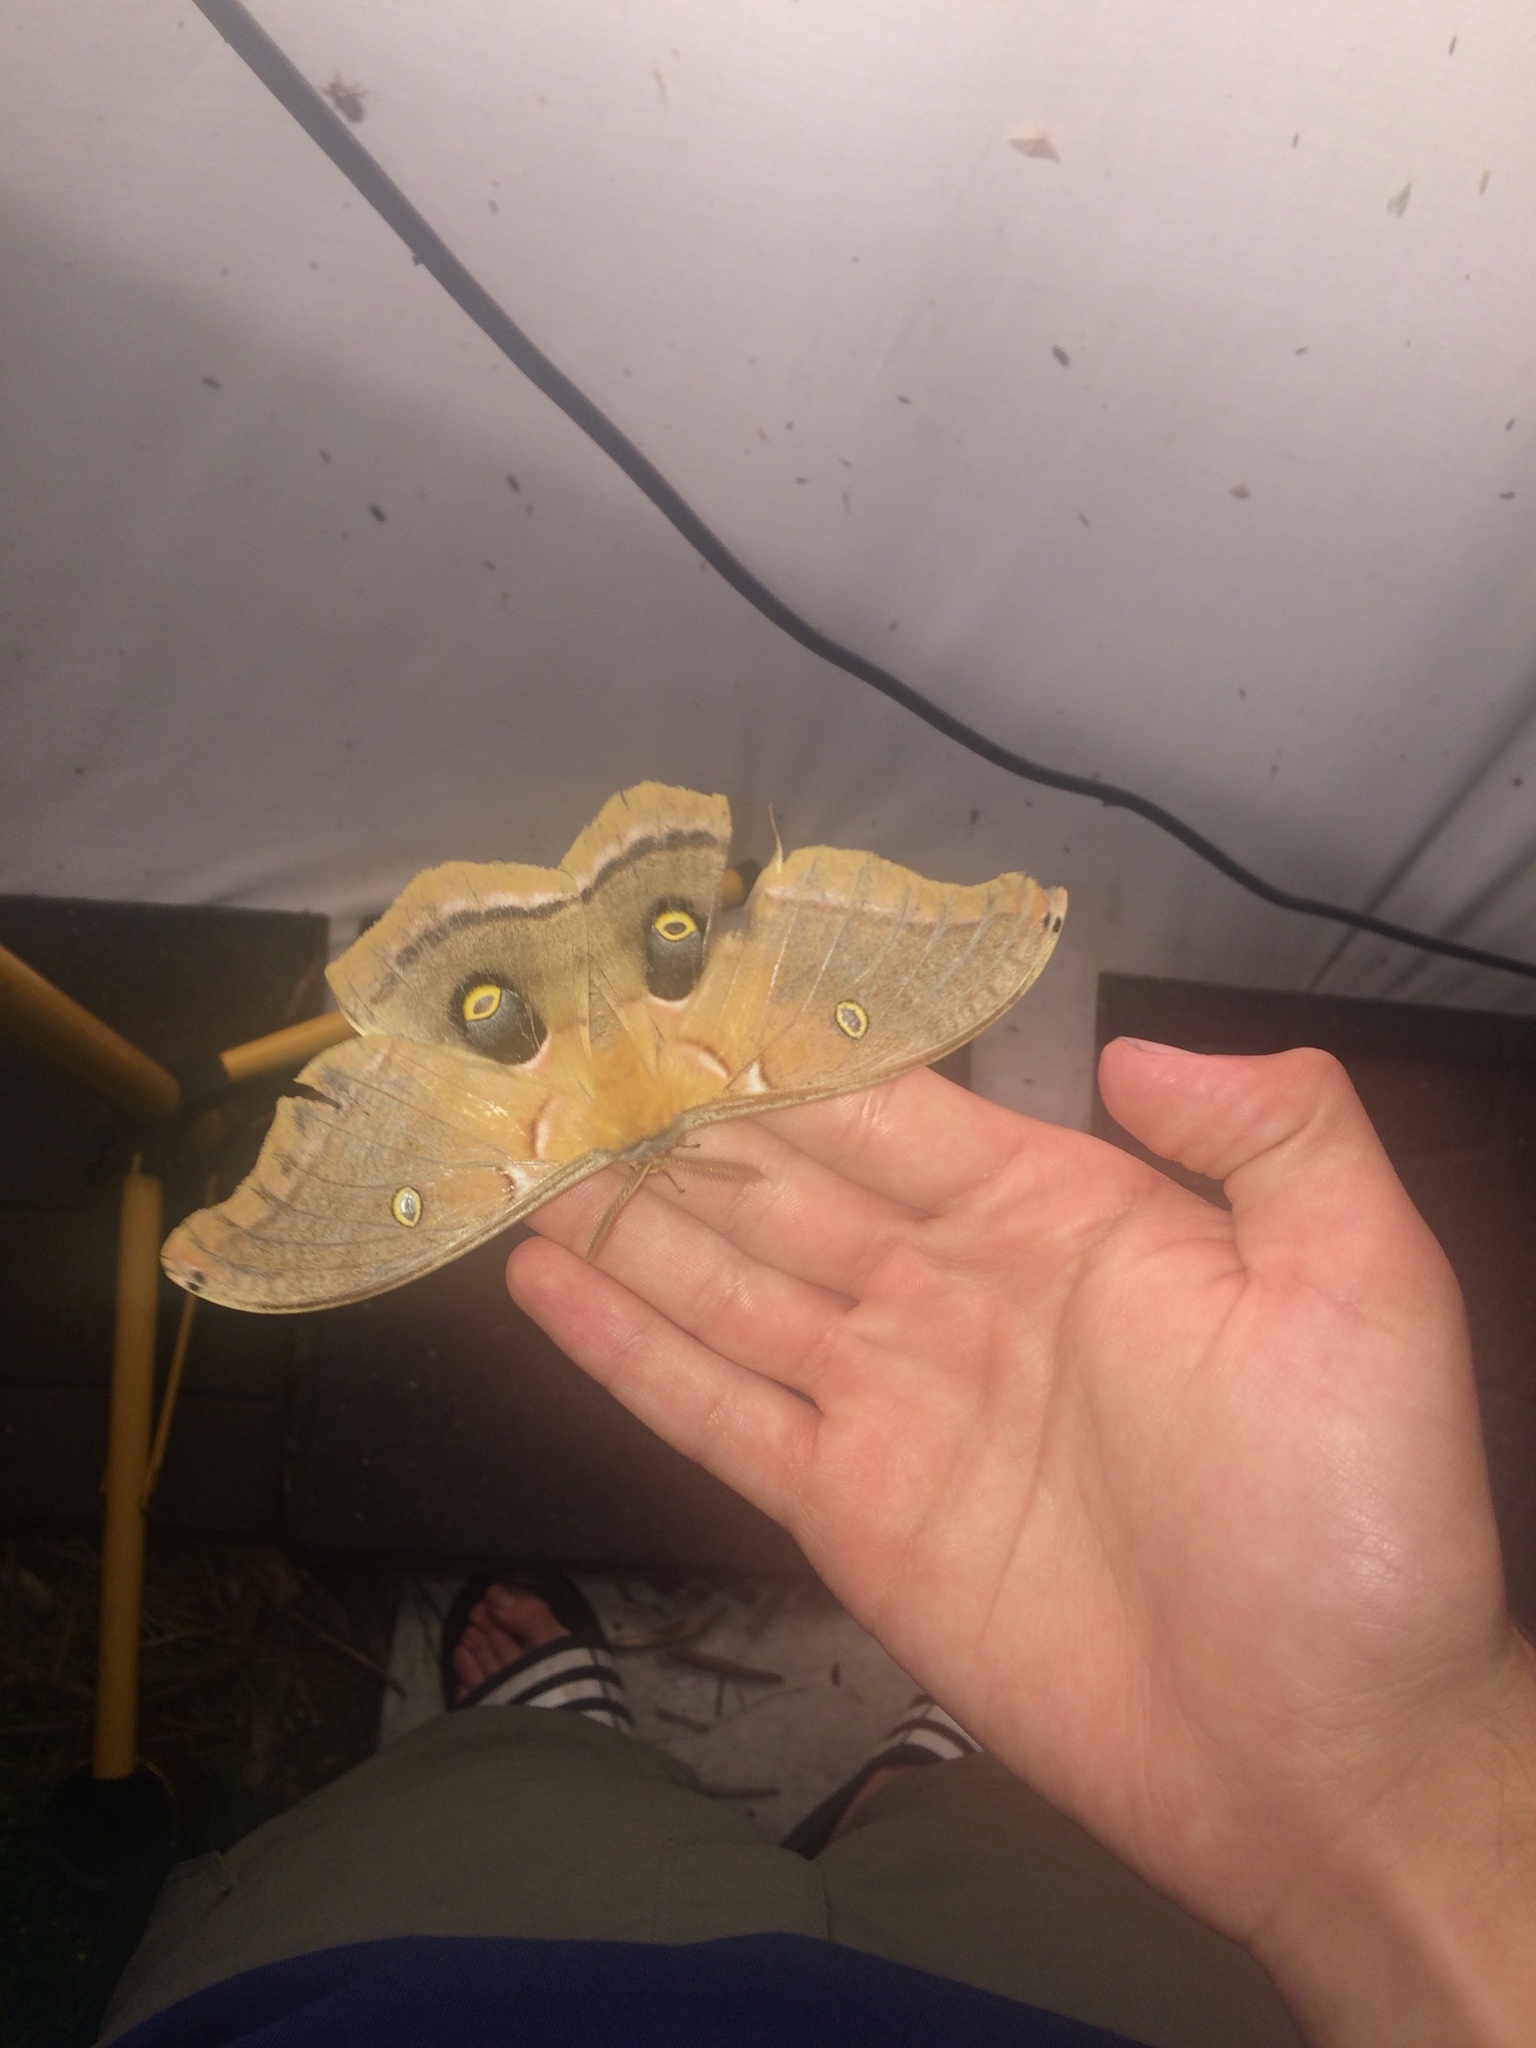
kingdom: Animalia
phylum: Arthropoda
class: Insecta
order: Lepidoptera
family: Saturniidae
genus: Antheraea
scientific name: Antheraea polyphemus
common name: Polyphemus moth
